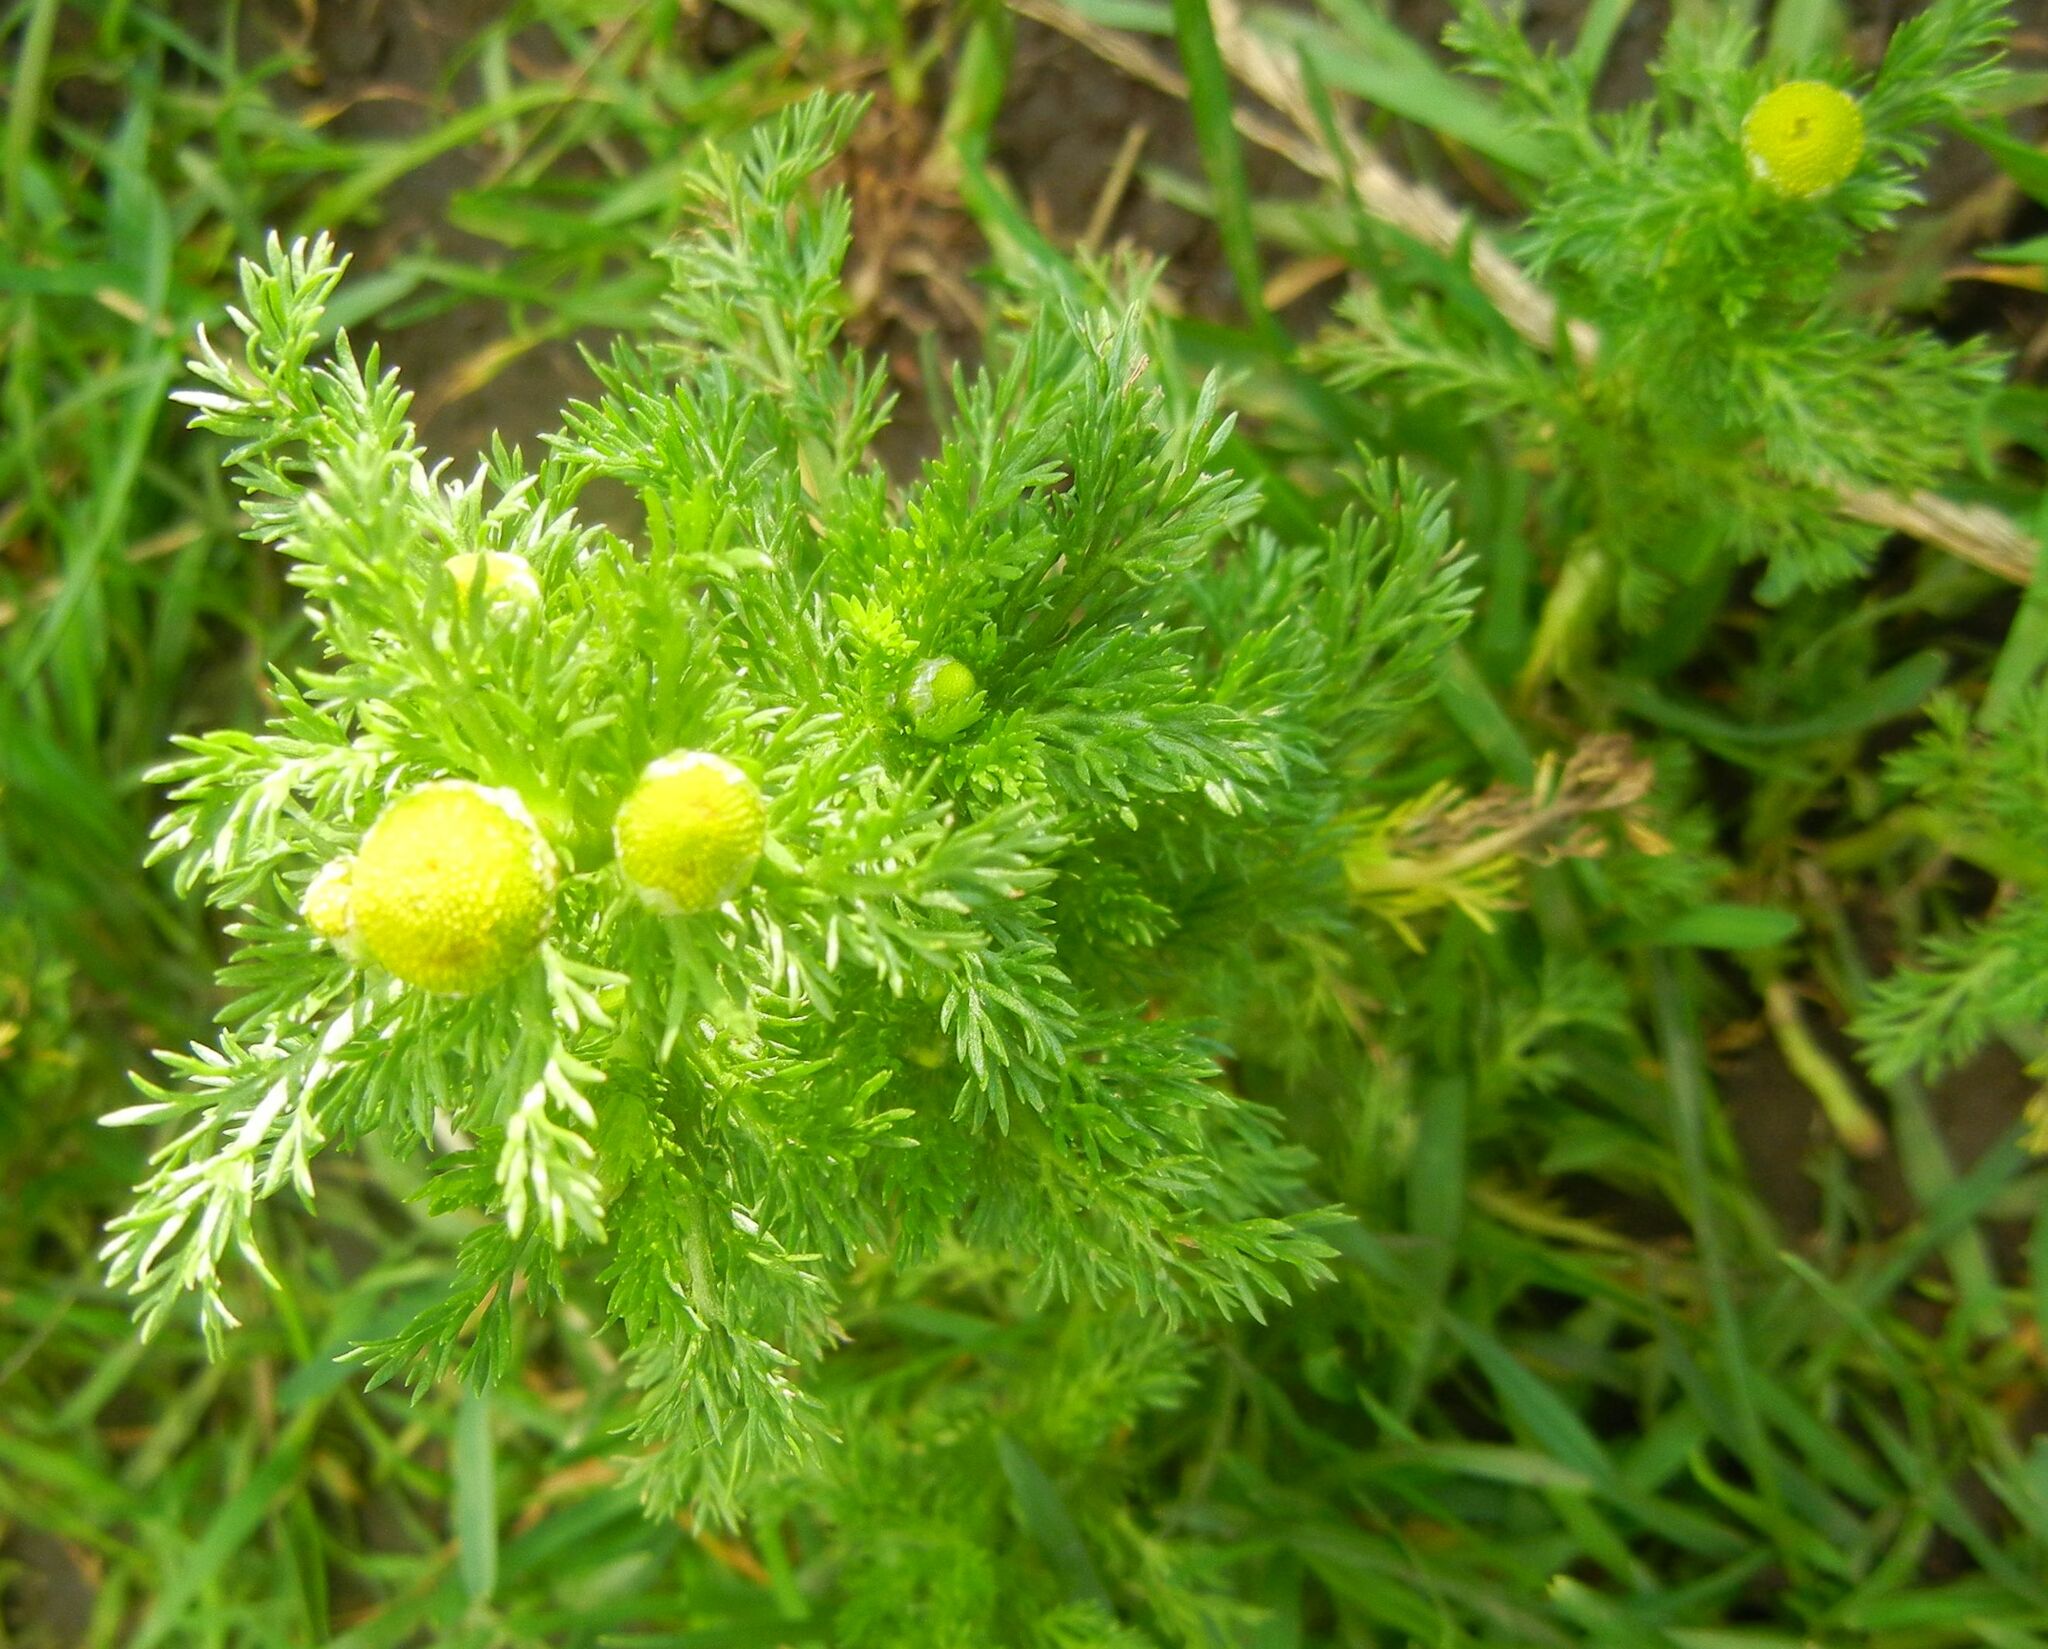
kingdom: Plantae
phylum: Tracheophyta
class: Magnoliopsida
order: Asterales
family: Asteraceae
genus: Matricaria
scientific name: Matricaria discoidea
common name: Disc mayweed
